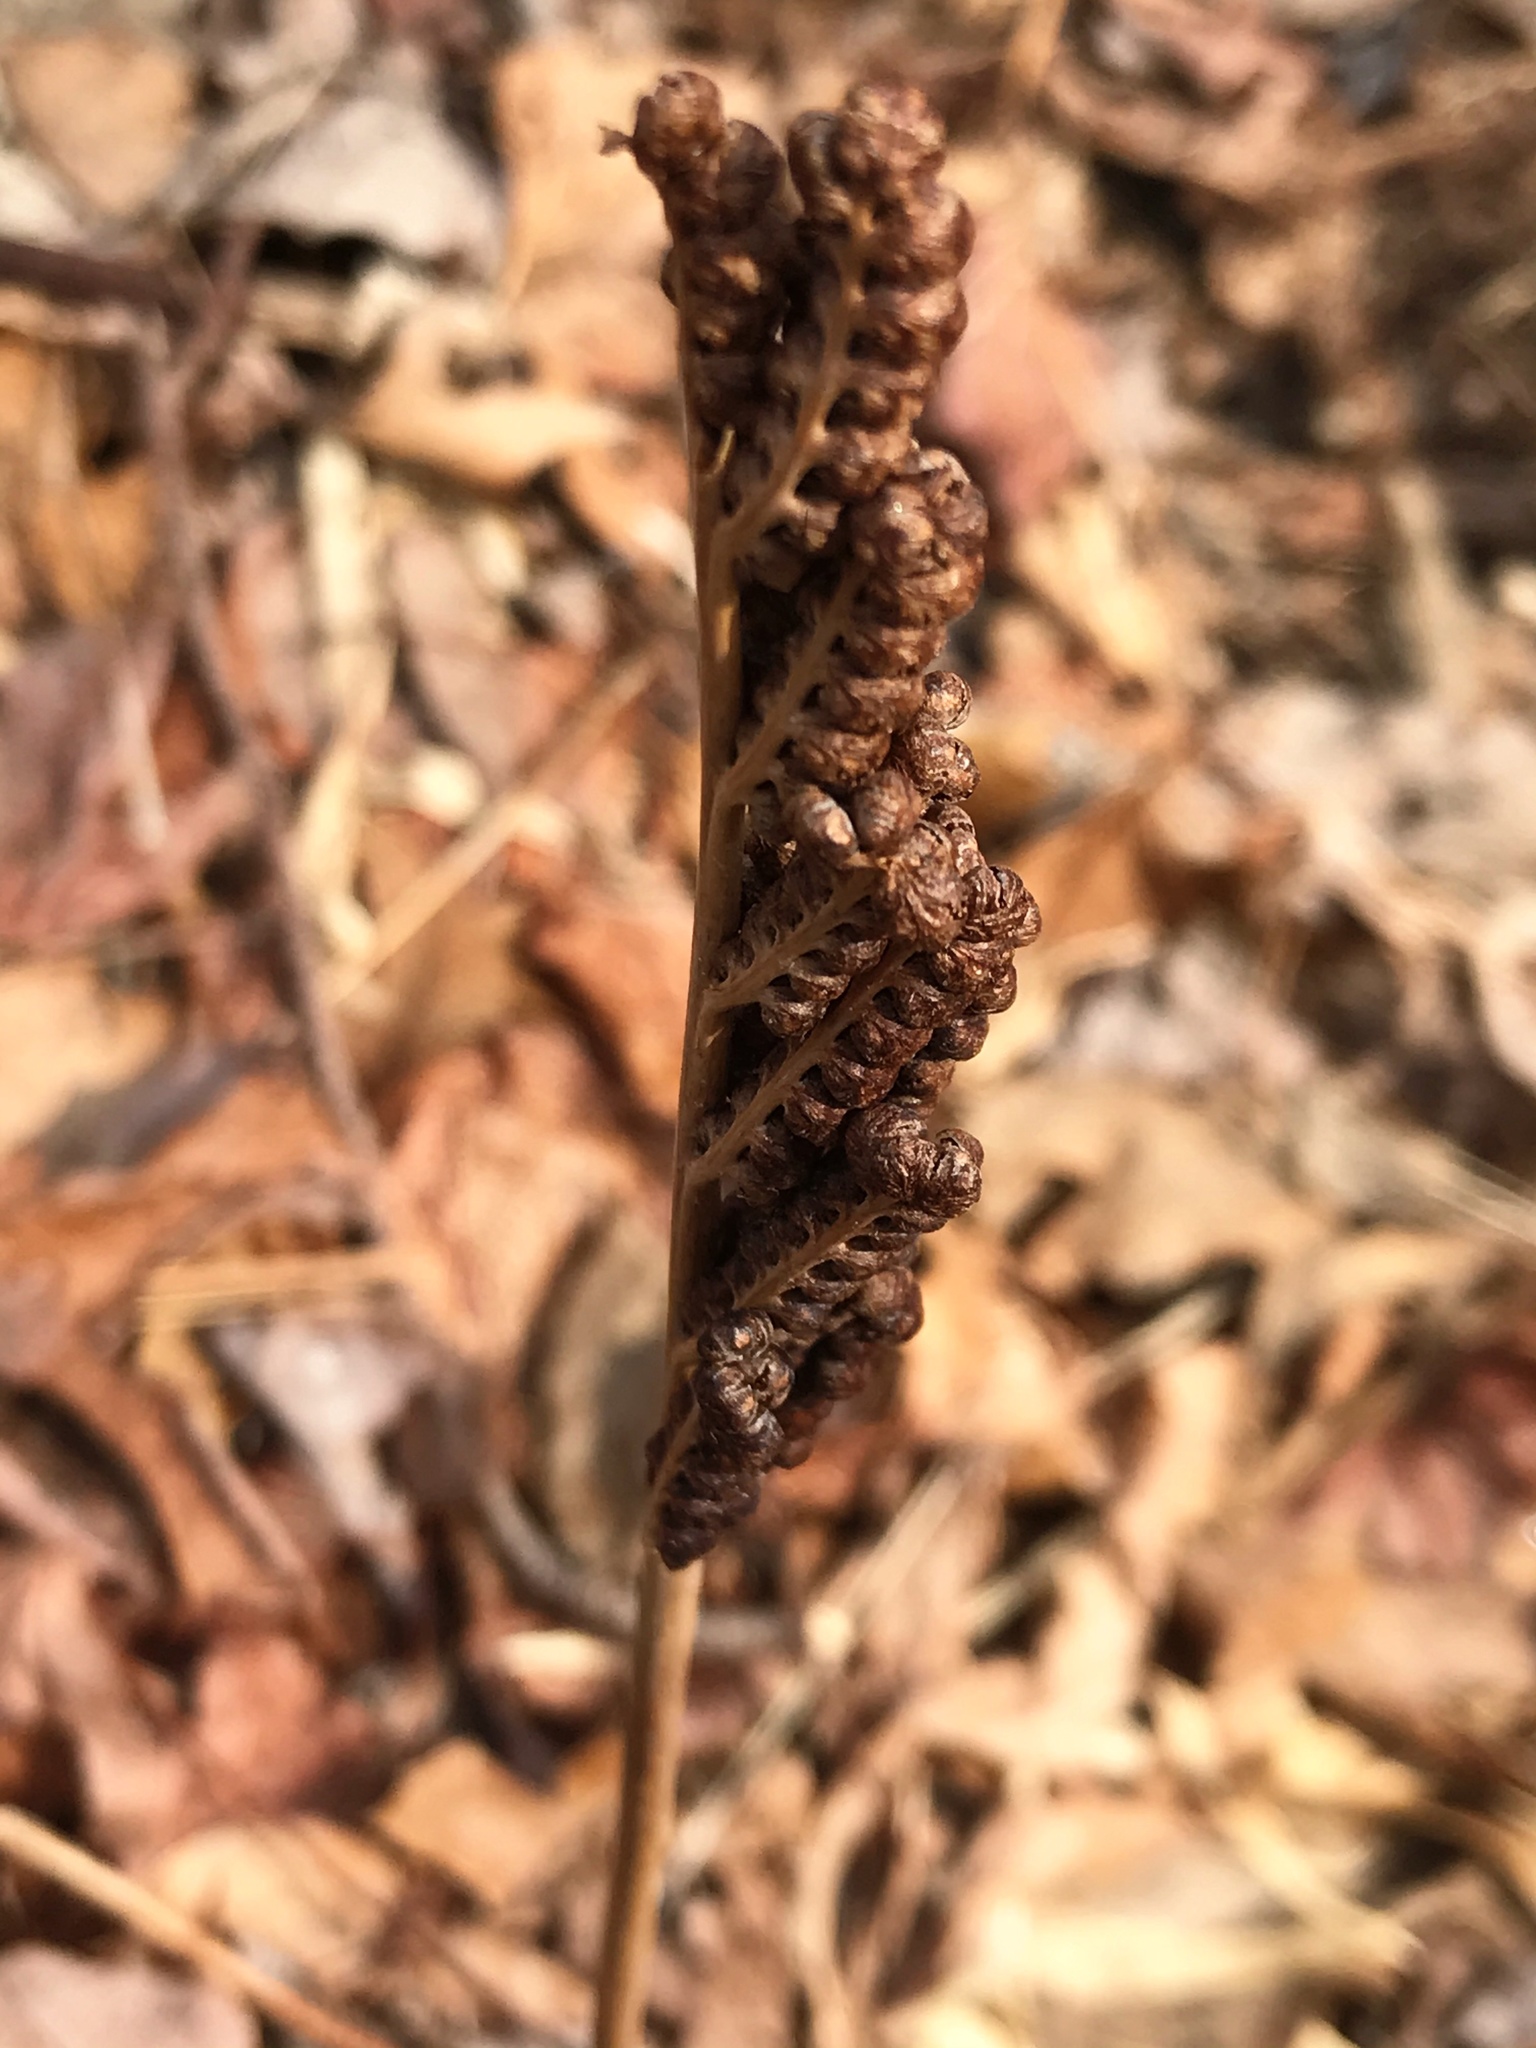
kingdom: Plantae
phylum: Tracheophyta
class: Polypodiopsida
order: Polypodiales
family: Onocleaceae
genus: Onoclea
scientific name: Onoclea sensibilis
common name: Sensitive fern
